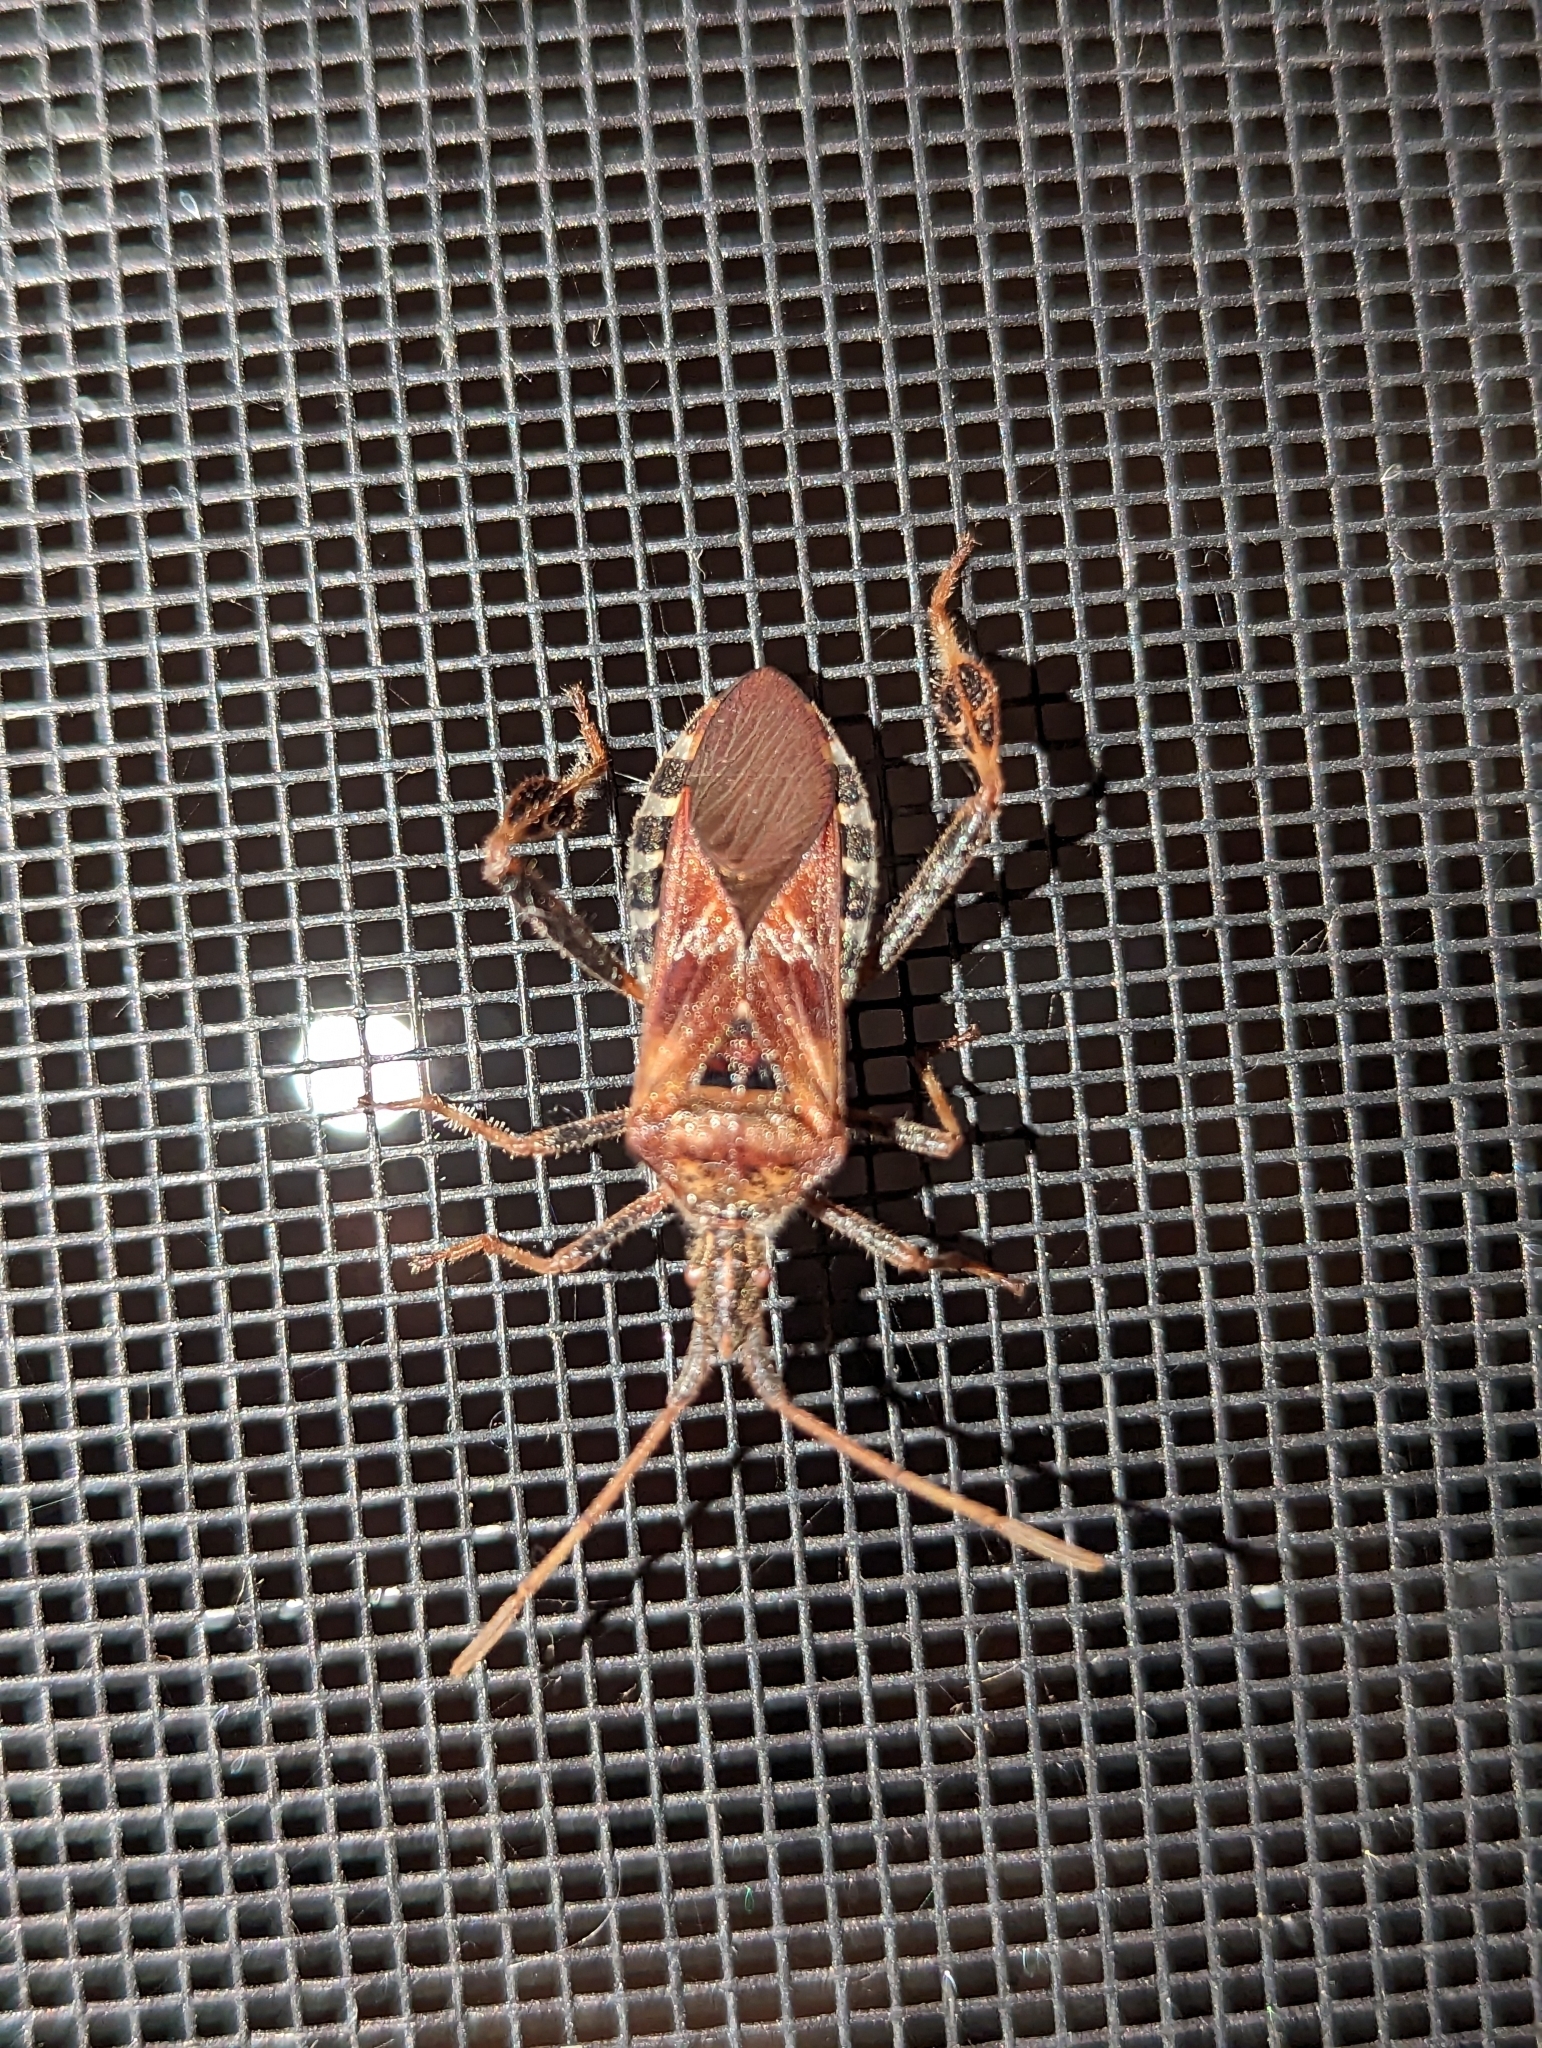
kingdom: Animalia
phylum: Arthropoda
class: Insecta
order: Hemiptera
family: Coreidae
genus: Leptoglossus
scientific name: Leptoglossus occidentalis
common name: Western conifer-seed bug
